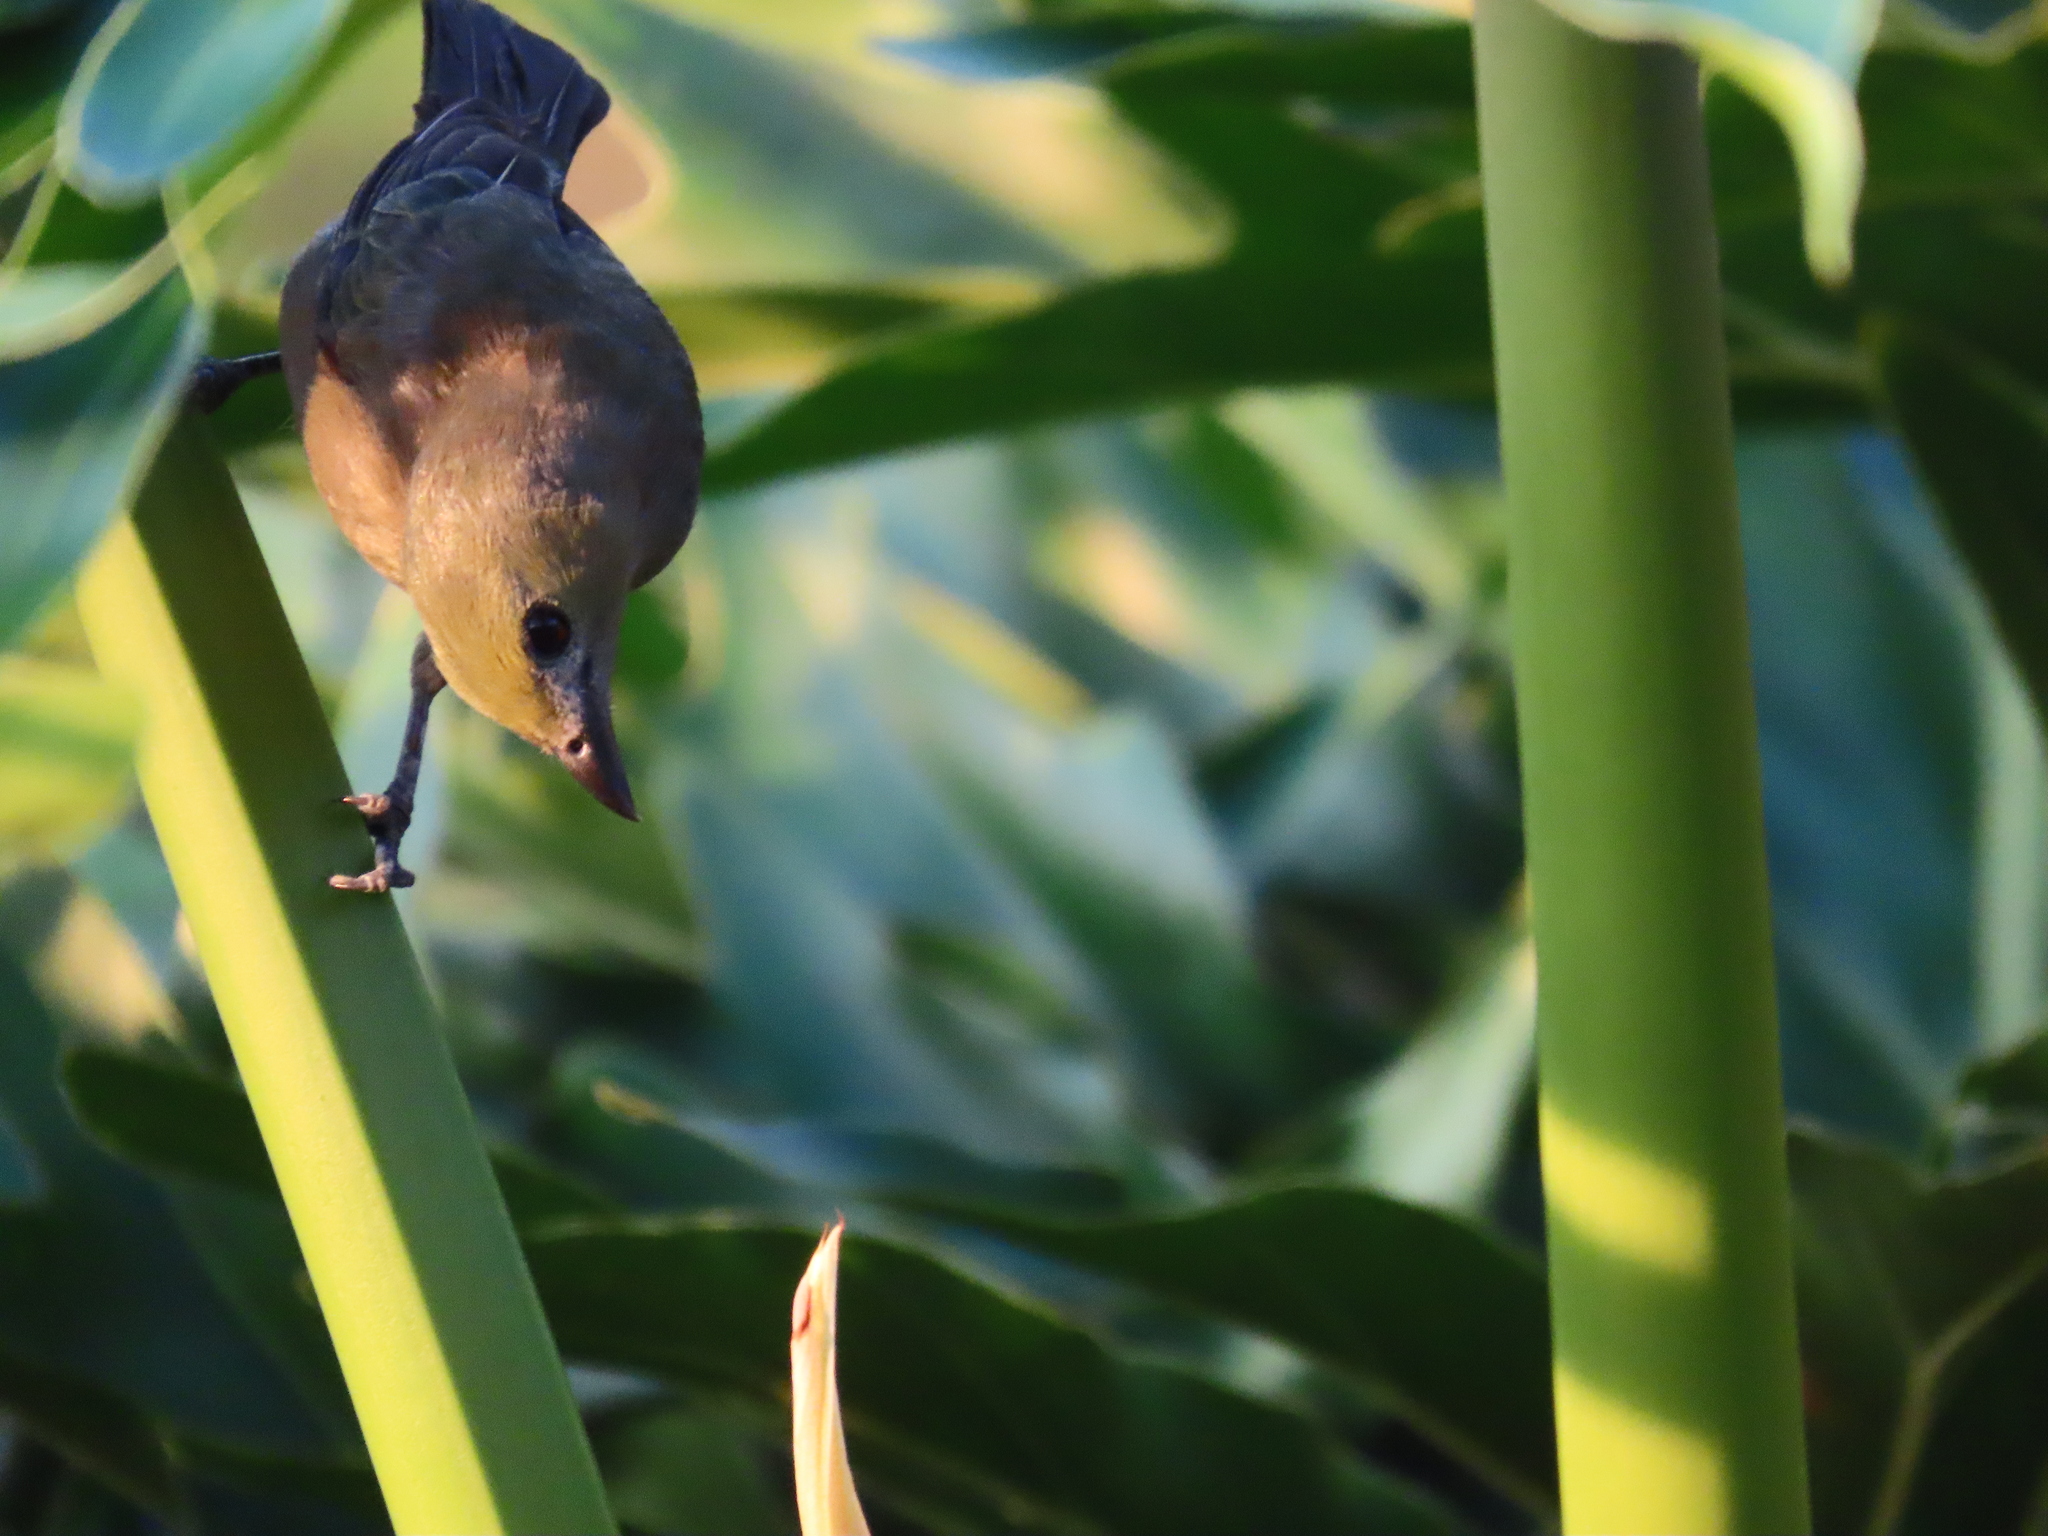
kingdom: Animalia
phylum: Chordata
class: Aves
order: Passeriformes
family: Thraupidae
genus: Thraupis
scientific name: Thraupis palmarum
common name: Palm tanager
